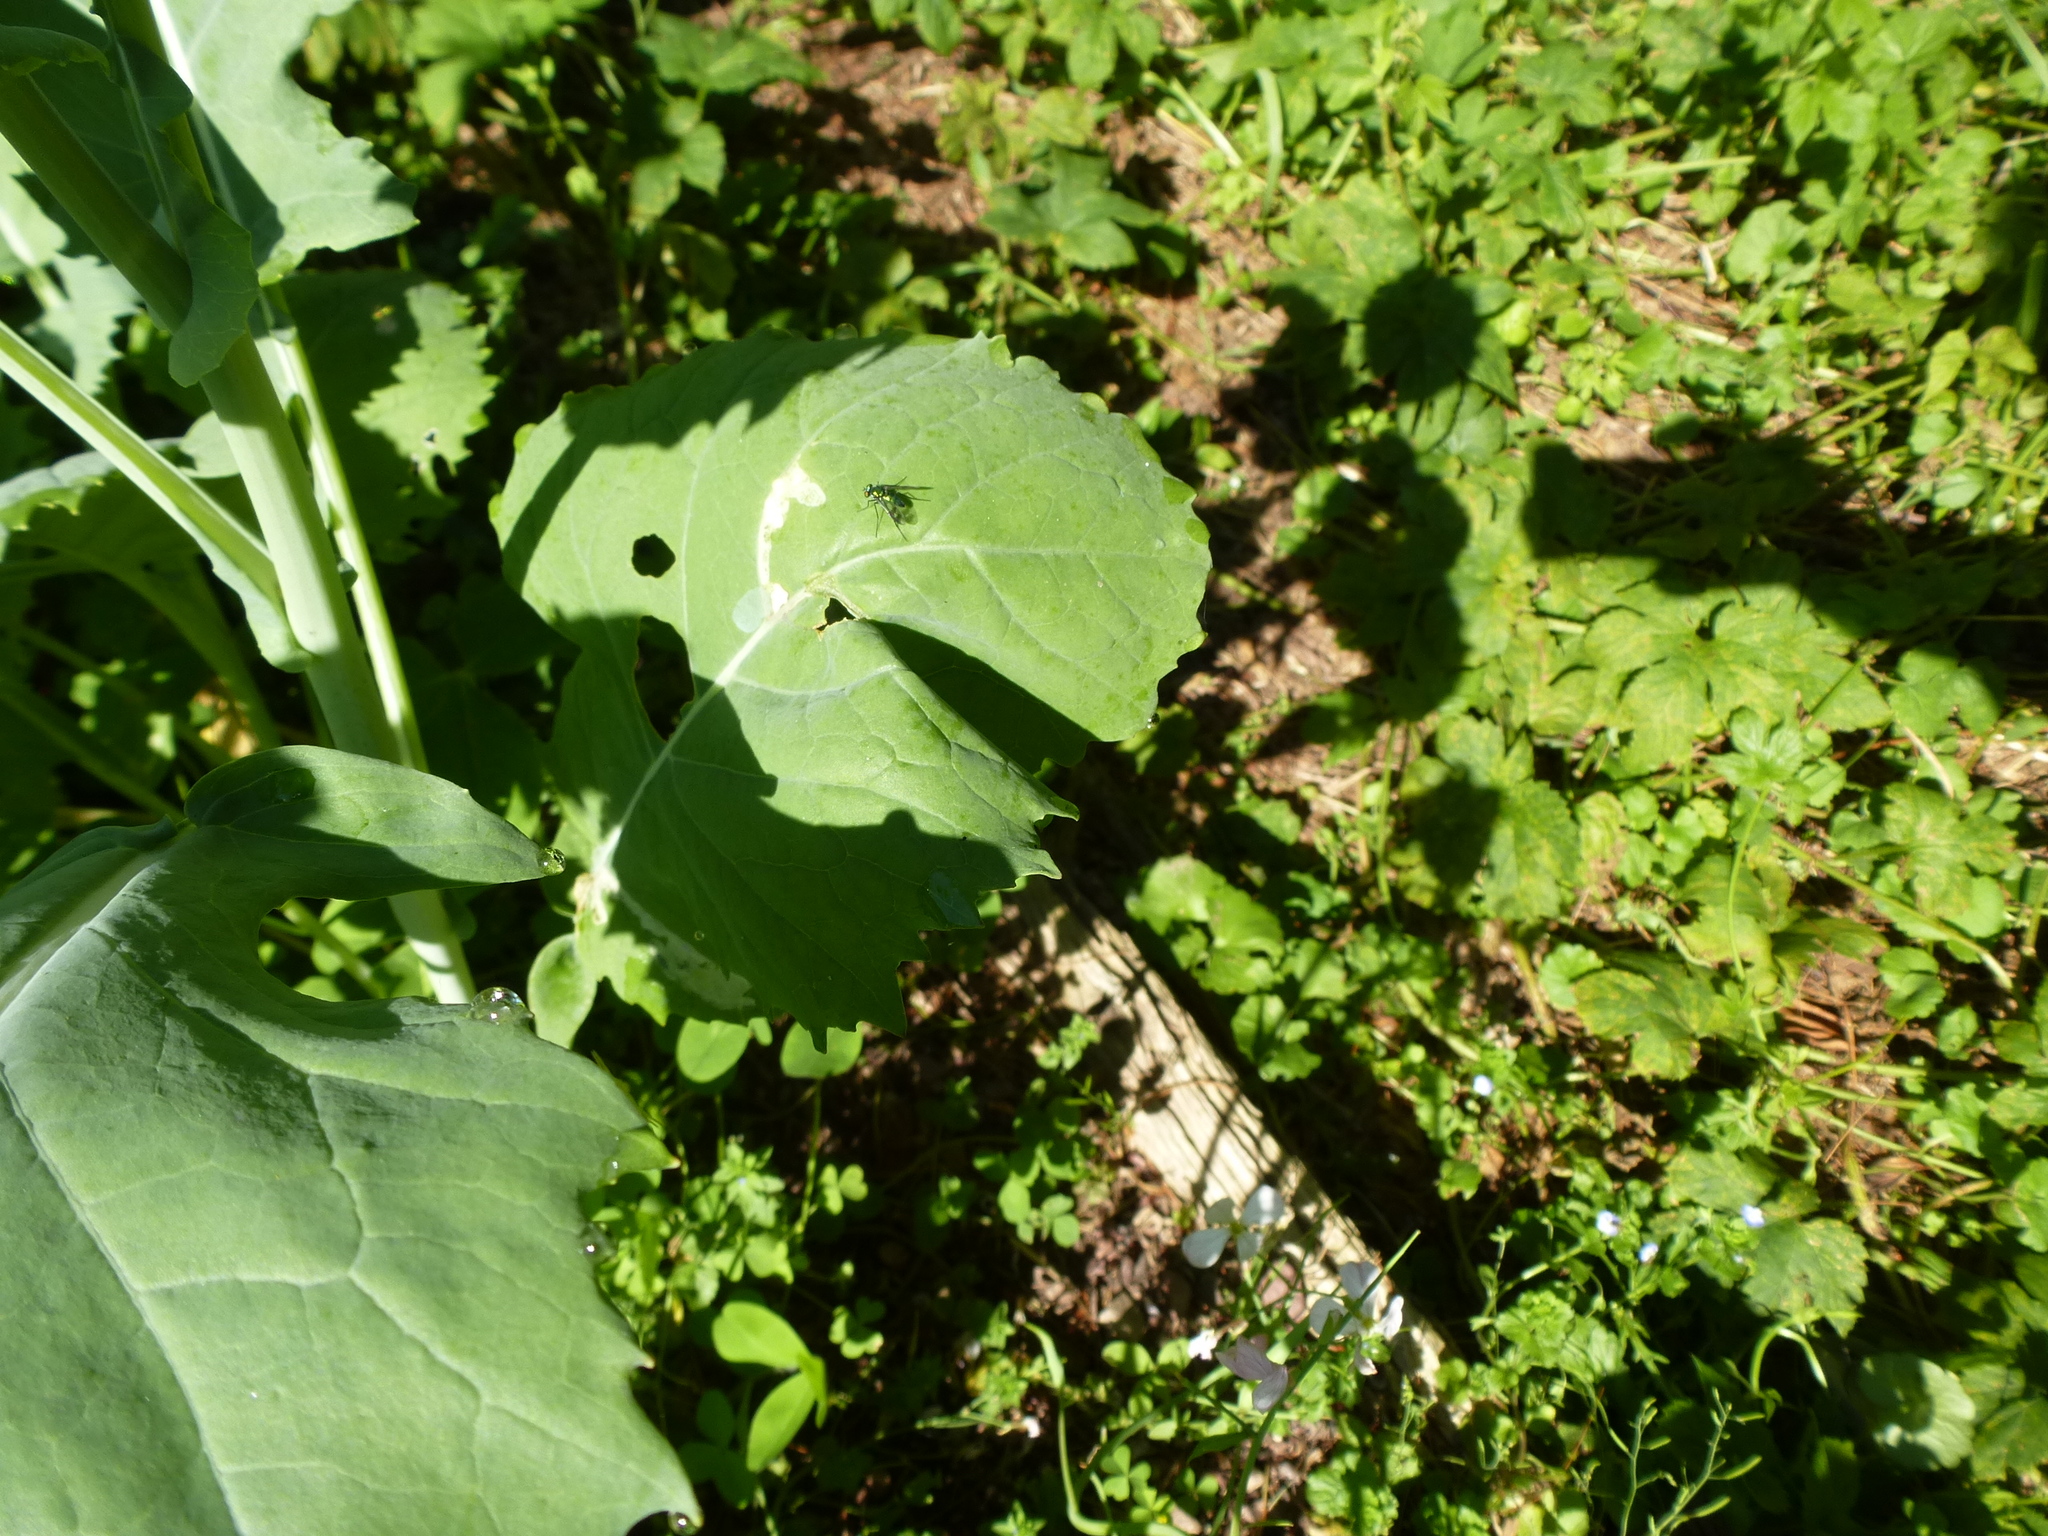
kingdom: Animalia
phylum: Arthropoda
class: Insecta
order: Diptera
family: Dolichopodidae
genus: Condylostylus
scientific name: Condylostylus patibulatus
